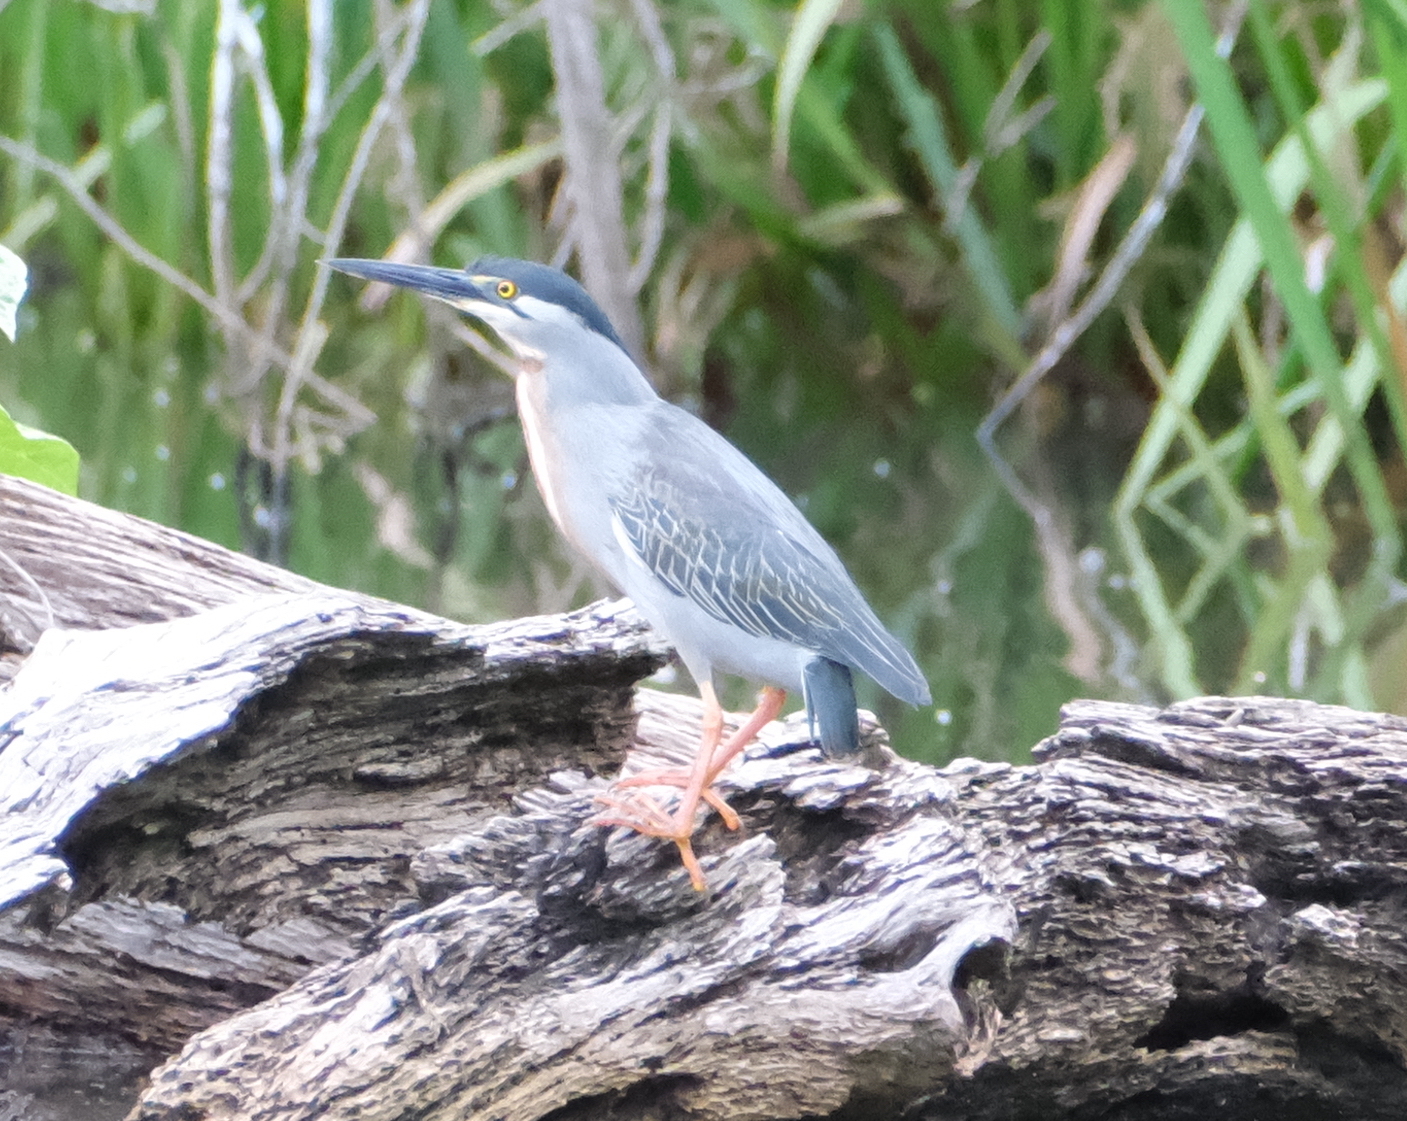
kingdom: Animalia
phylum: Chordata
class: Aves
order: Pelecaniformes
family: Ardeidae
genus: Butorides
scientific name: Butorides striata
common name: Striated heron
